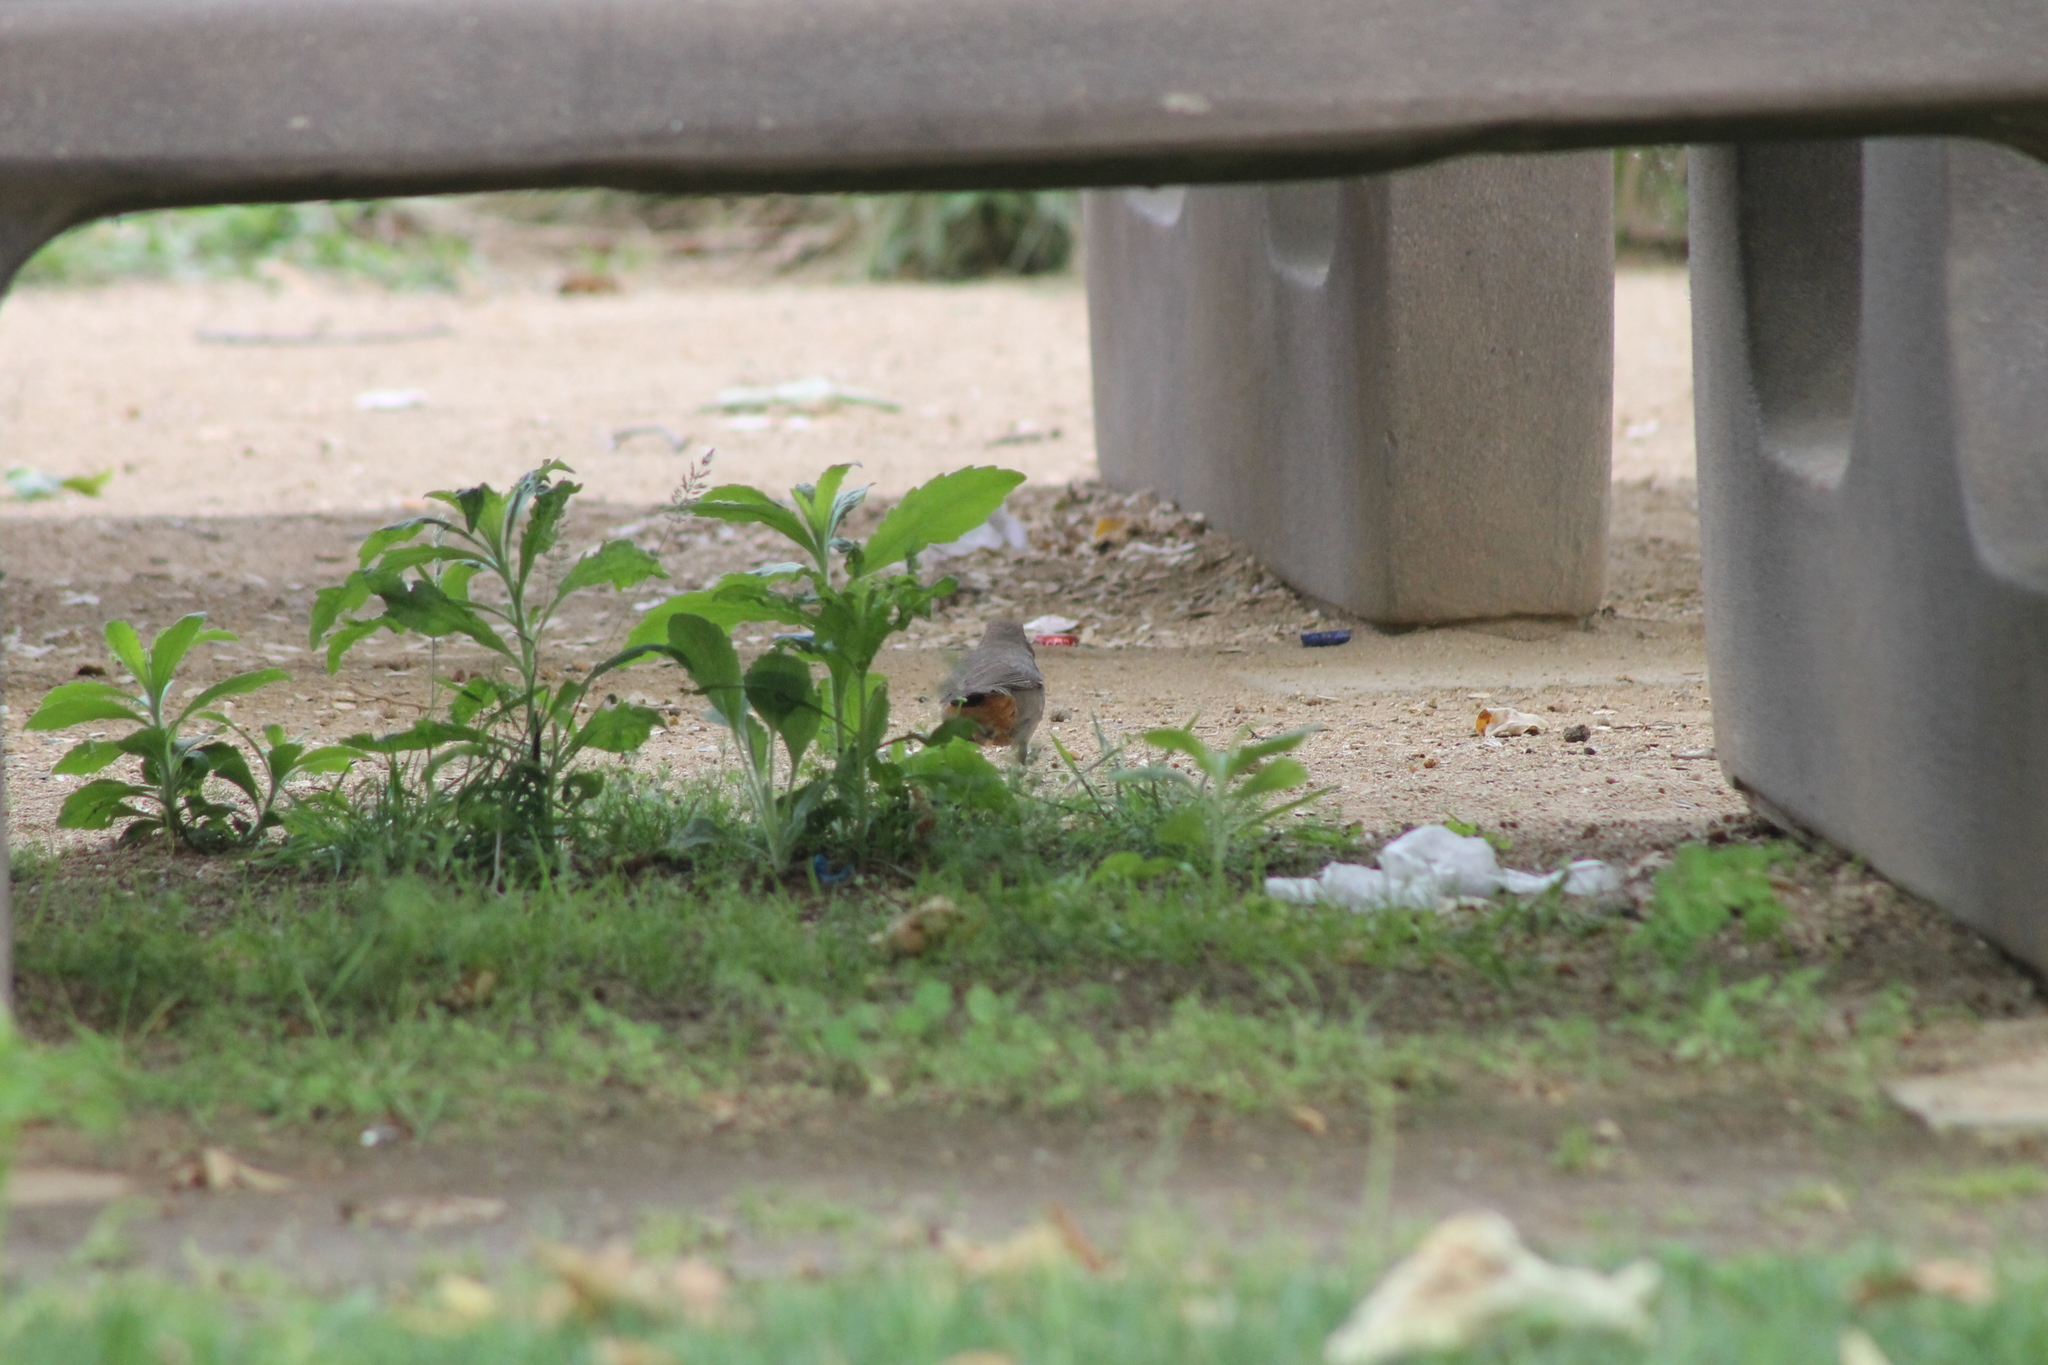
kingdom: Animalia
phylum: Chordata
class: Aves
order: Passeriformes
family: Passerellidae
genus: Melozone
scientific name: Melozone crissalis
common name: California towhee
